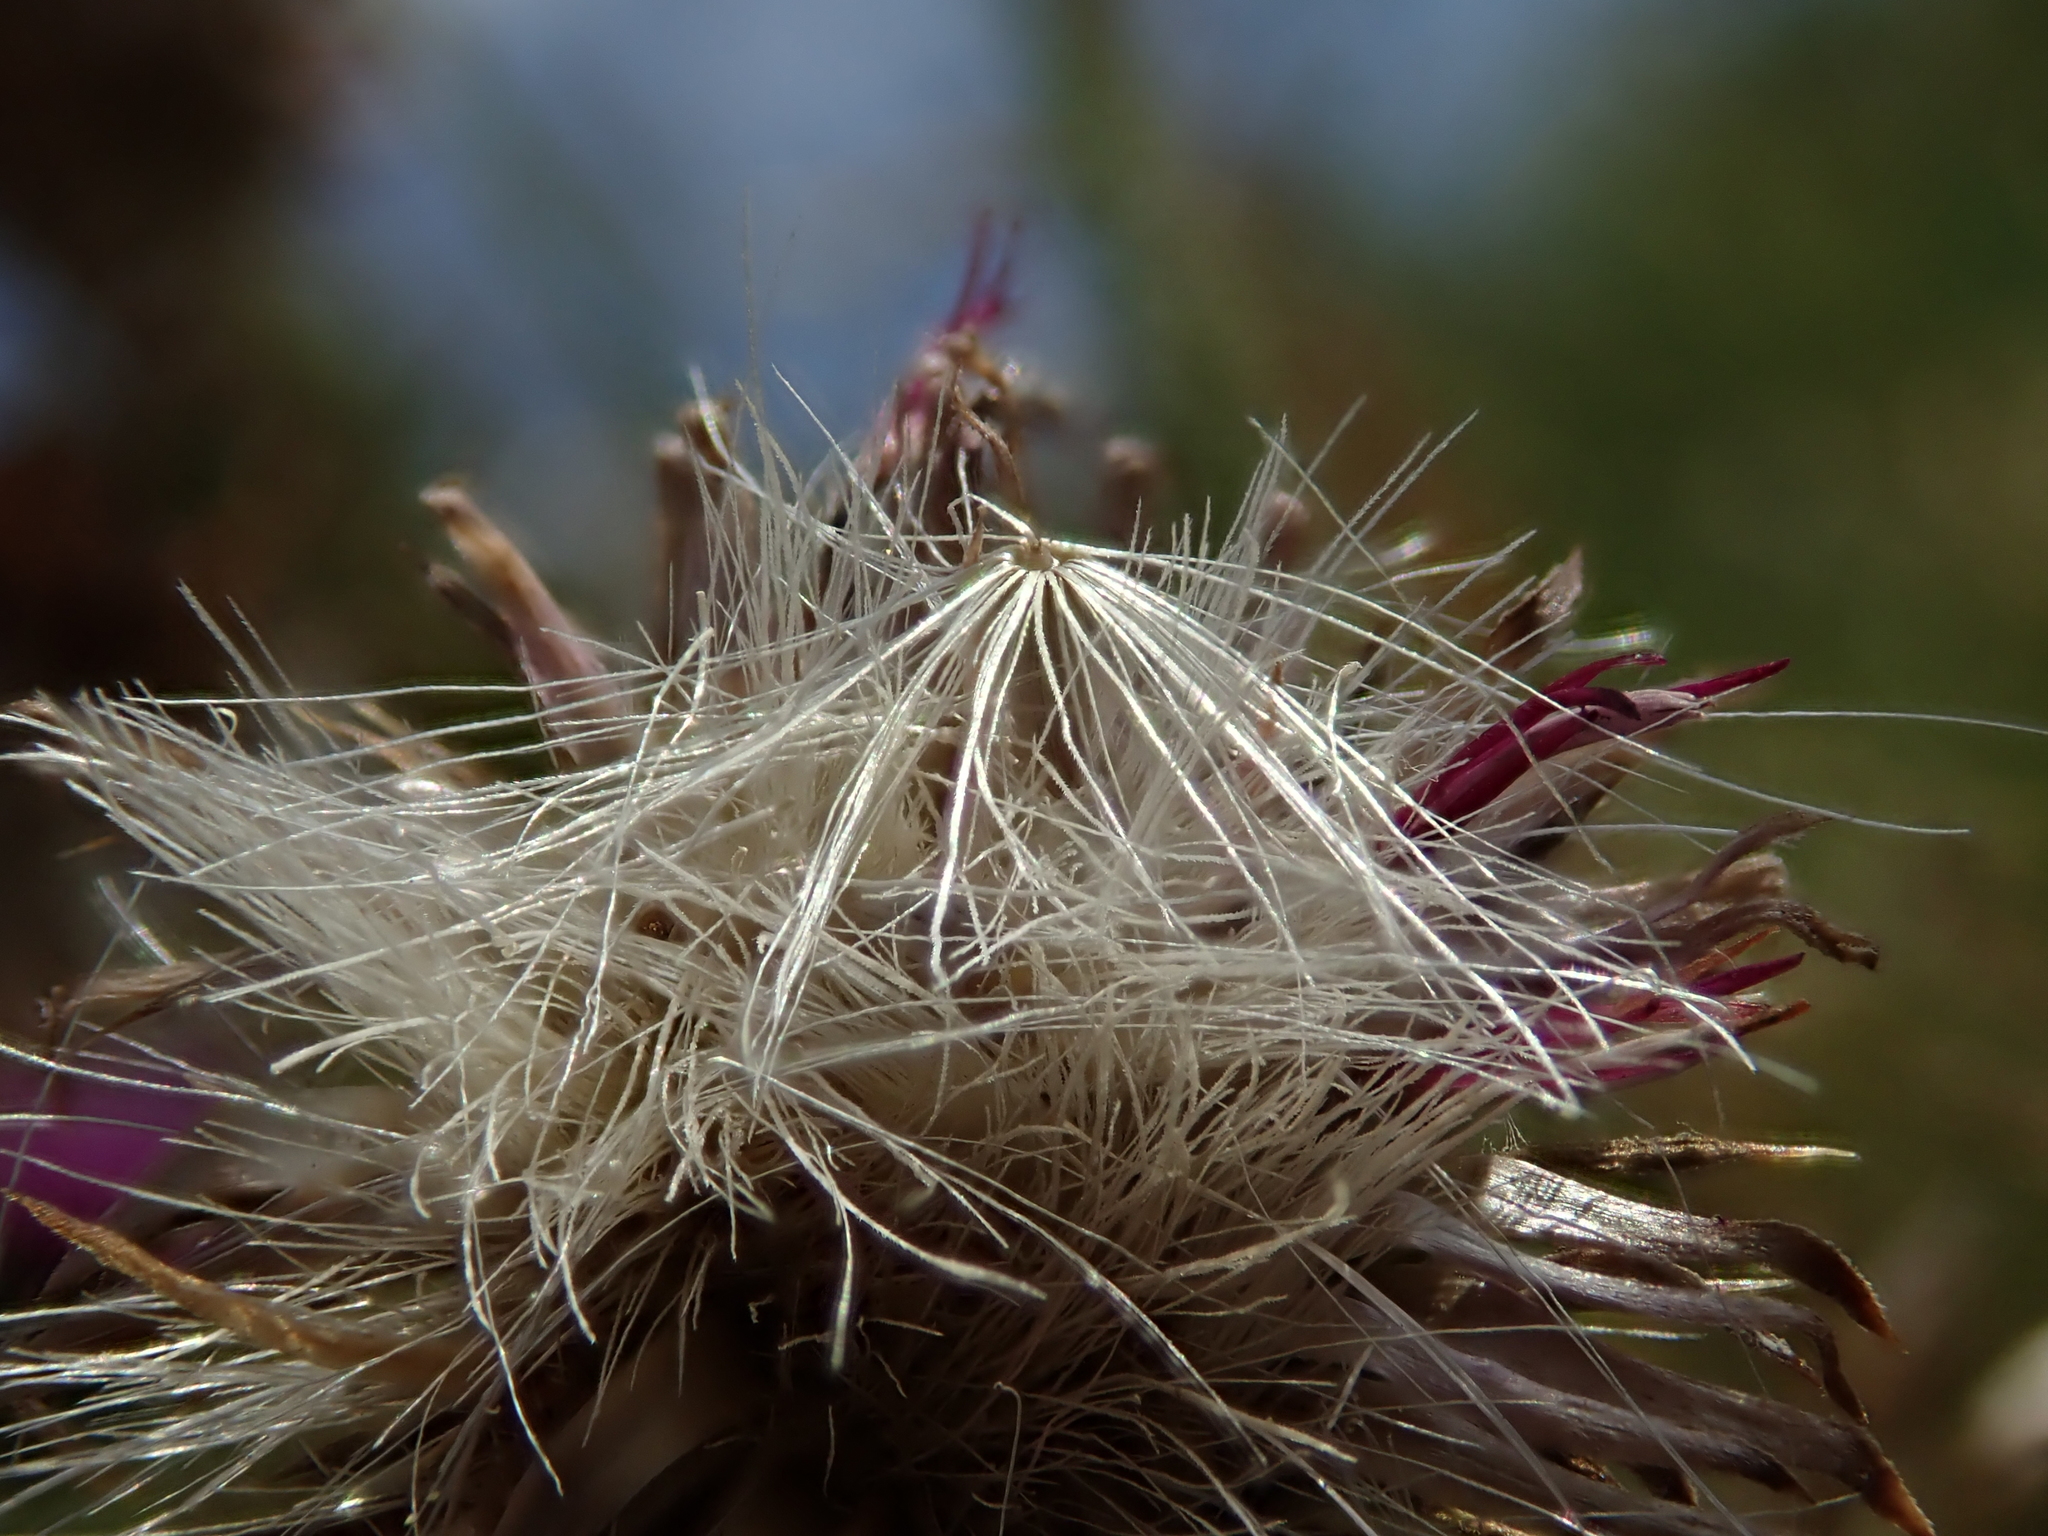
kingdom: Plantae
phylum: Tracheophyta
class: Magnoliopsida
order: Asterales
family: Asteraceae
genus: Carduus
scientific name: Carduus crispus
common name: Welted thistle
